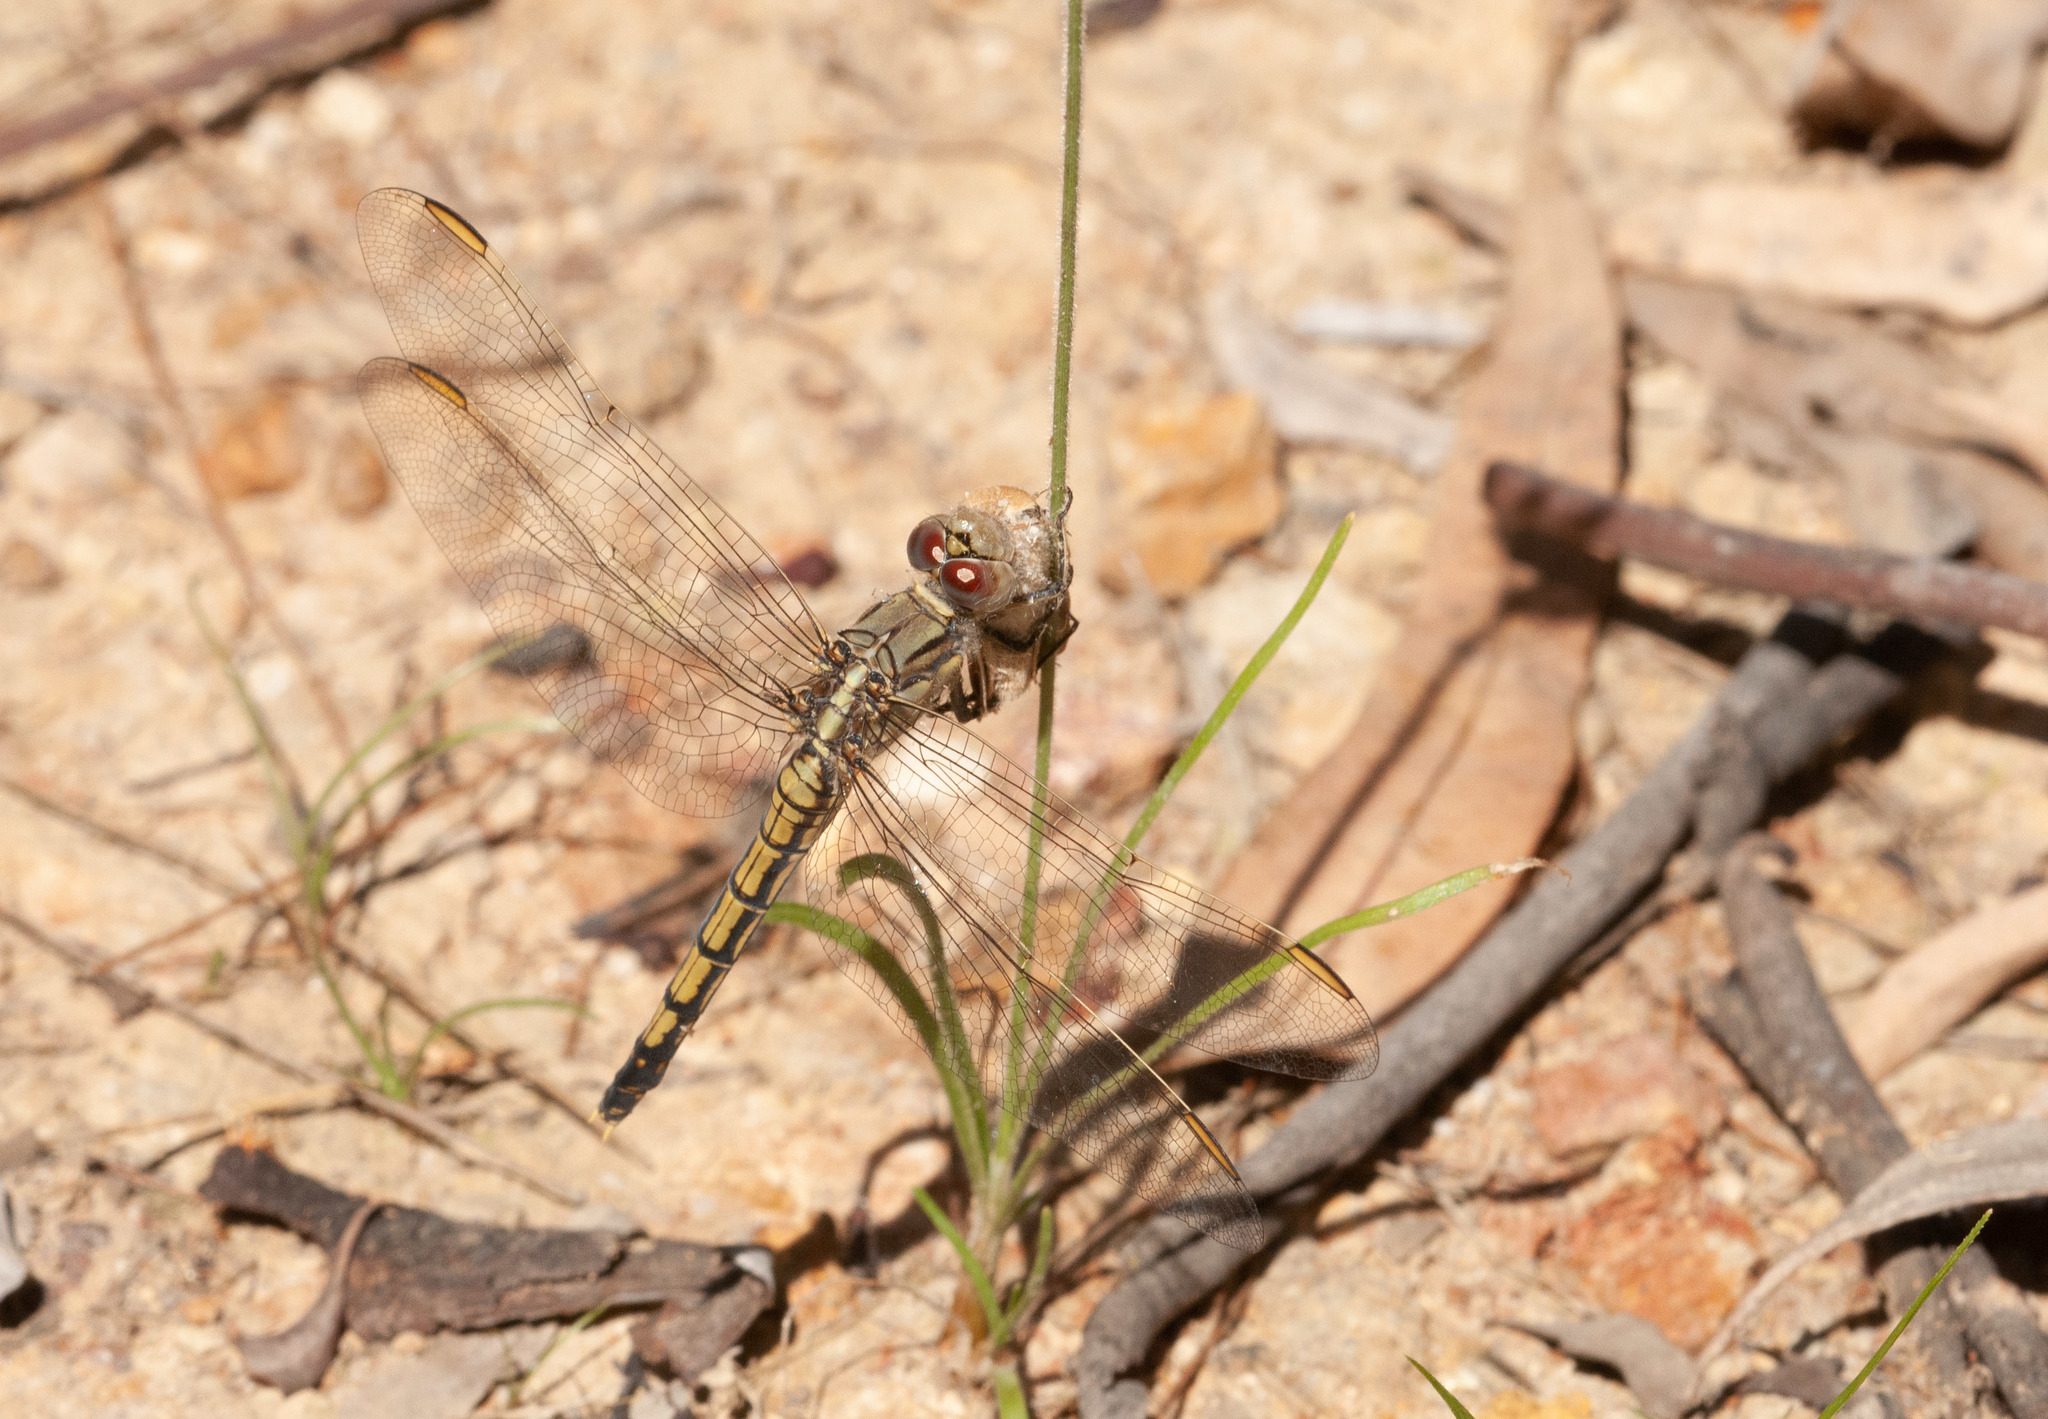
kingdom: Animalia
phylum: Arthropoda
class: Insecta
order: Odonata
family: Libellulidae
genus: Orthetrum
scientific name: Orthetrum caledonicum
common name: Blue skimmer
